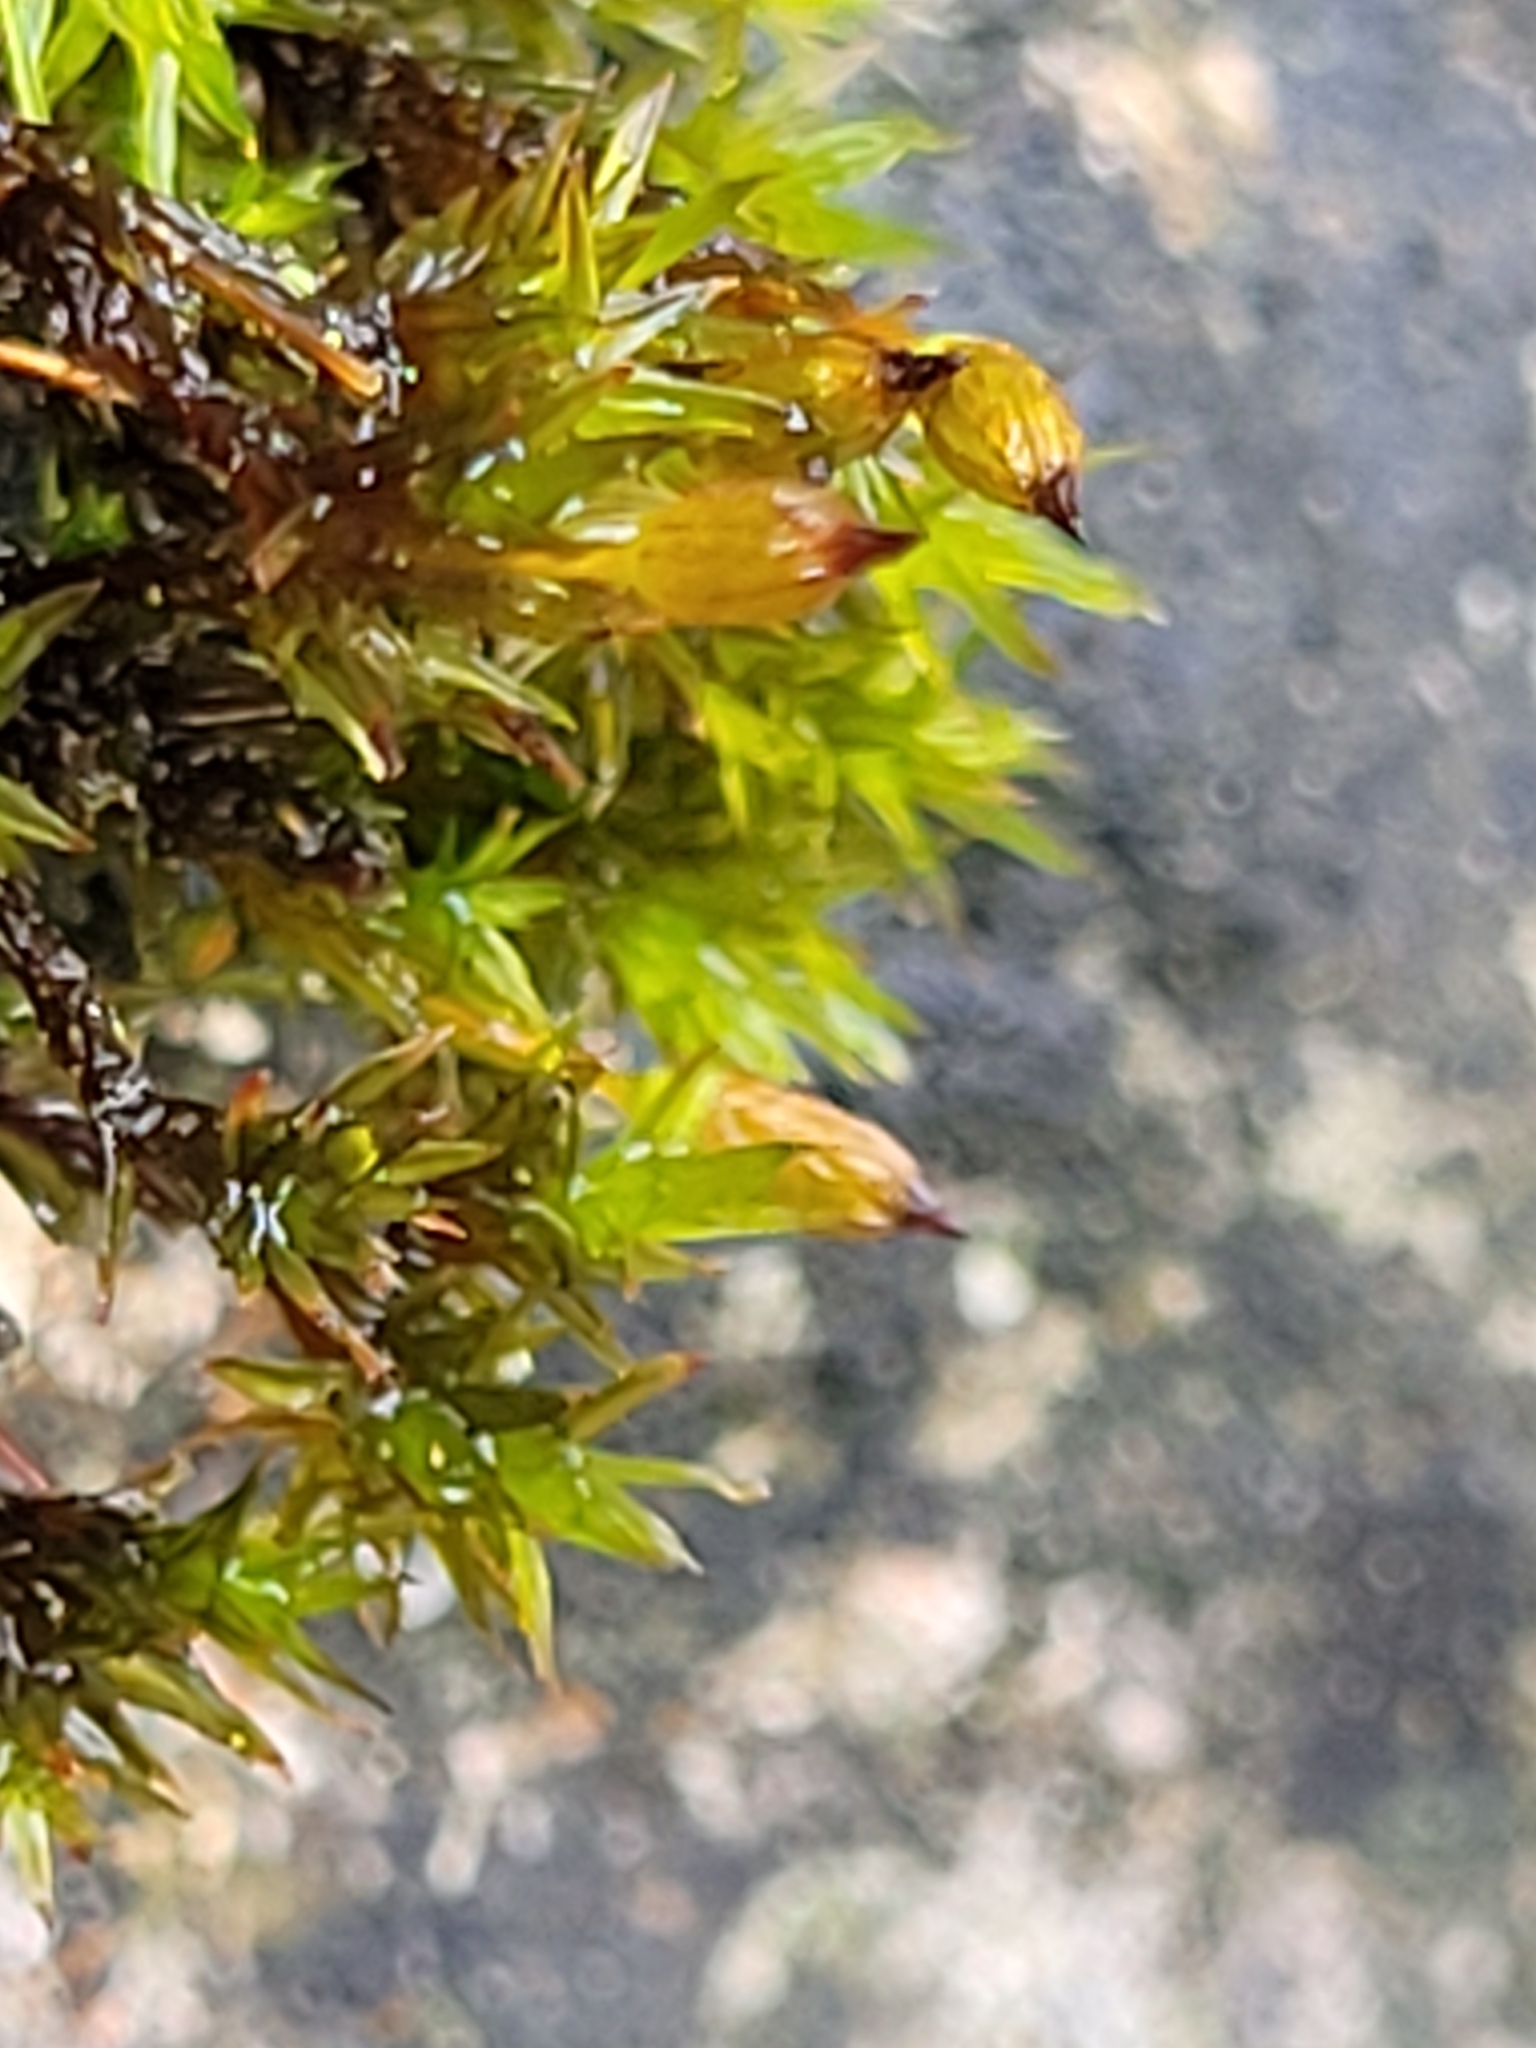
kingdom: Plantae
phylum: Bryophyta
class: Bryopsida
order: Orthotrichales
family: Orthotrichaceae
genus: Orthotrichum
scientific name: Orthotrichum anomalum
